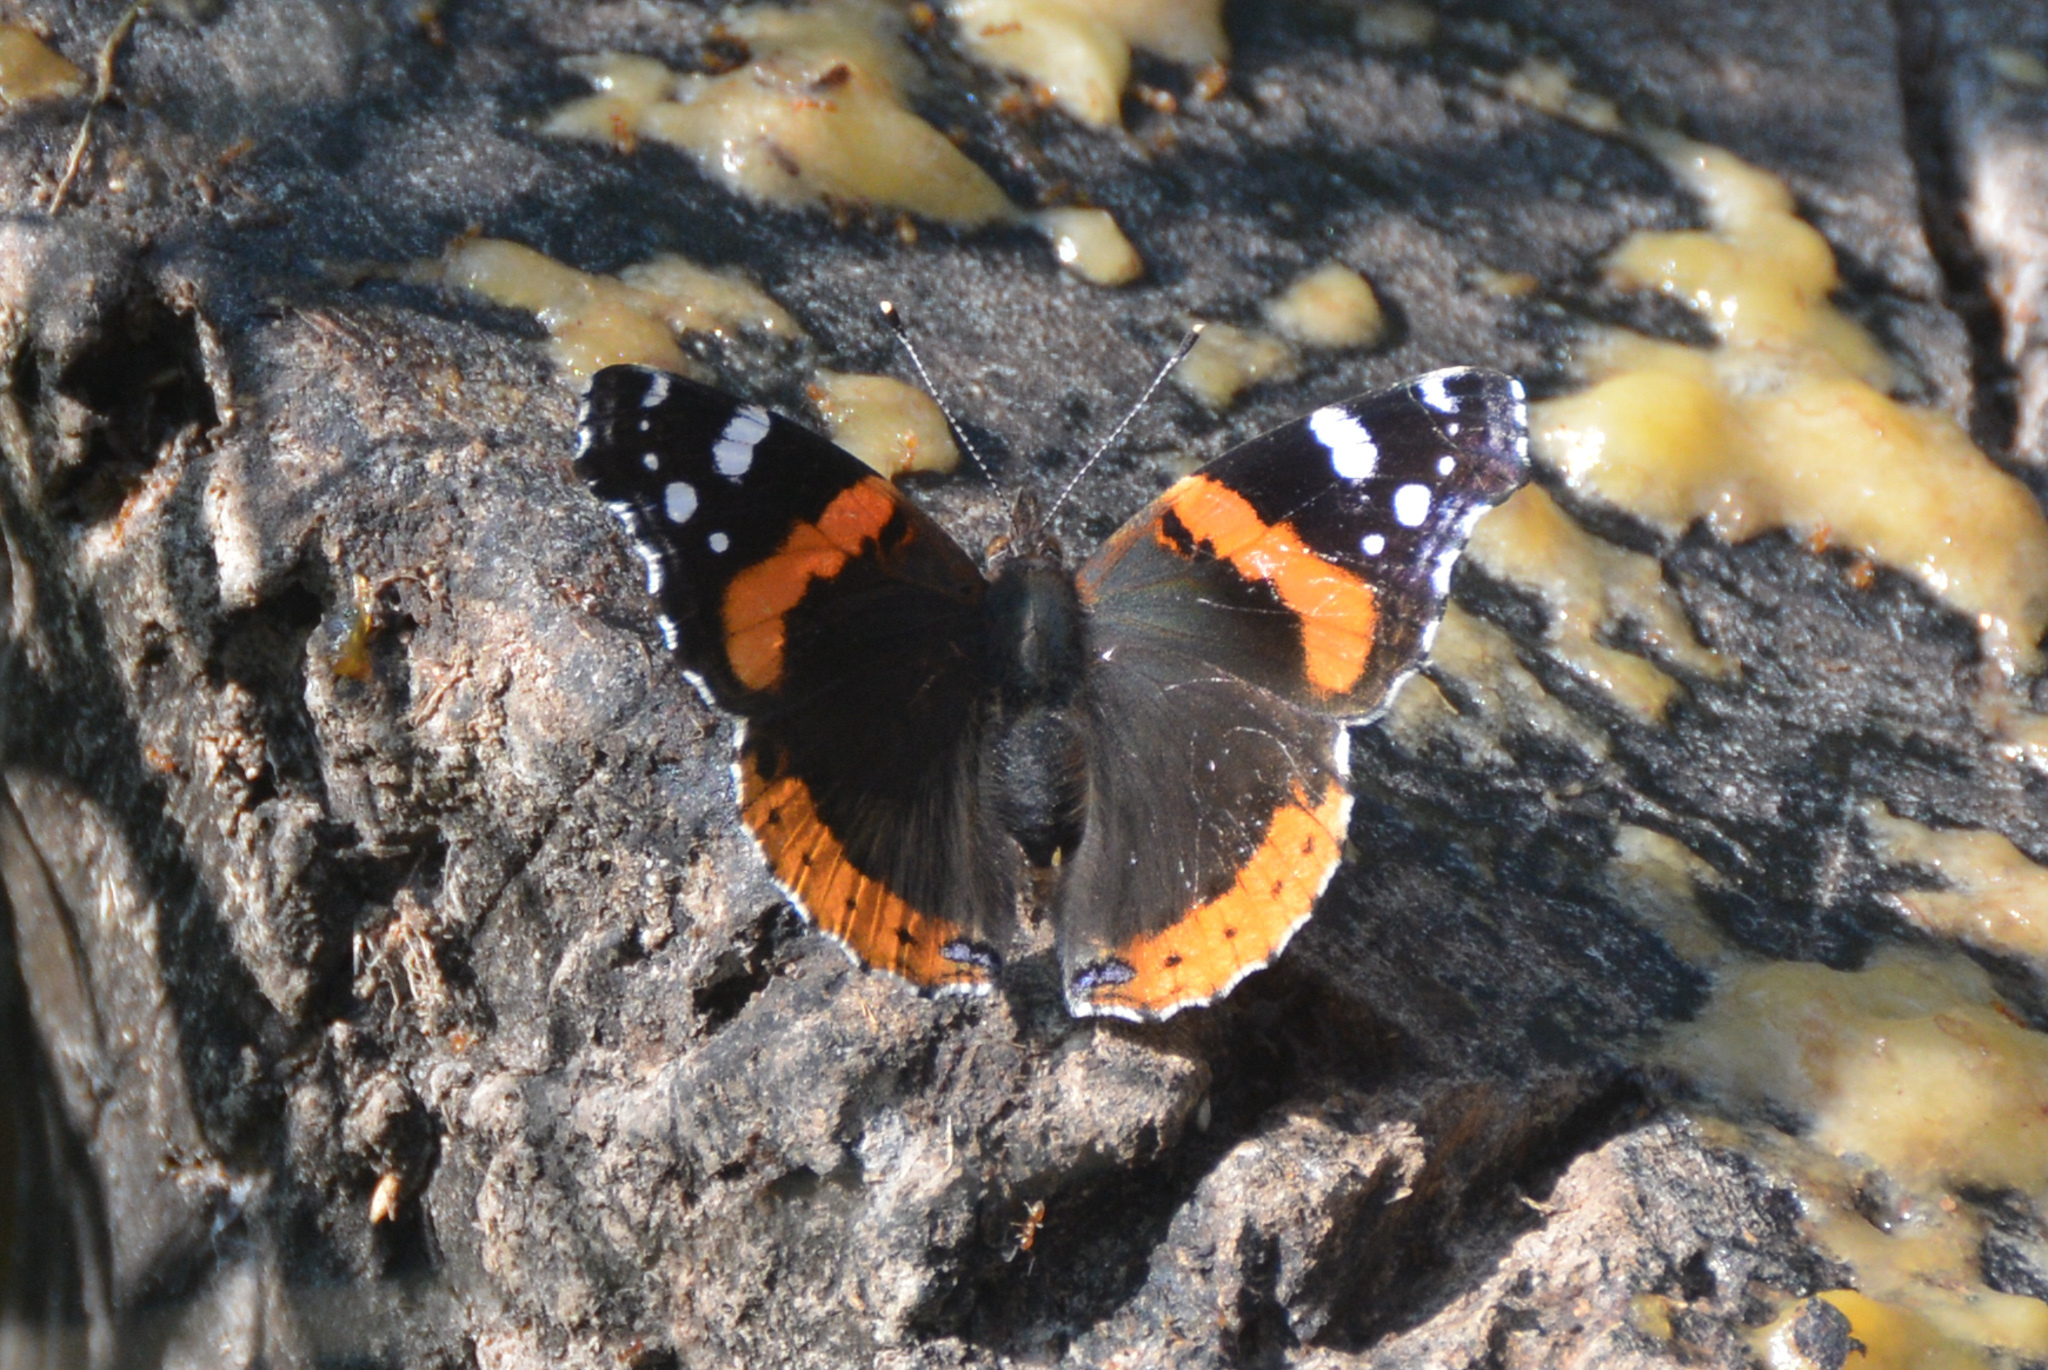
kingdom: Animalia
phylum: Arthropoda
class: Insecta
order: Lepidoptera
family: Nymphalidae
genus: Vanessa
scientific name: Vanessa atalanta
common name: Red admiral
